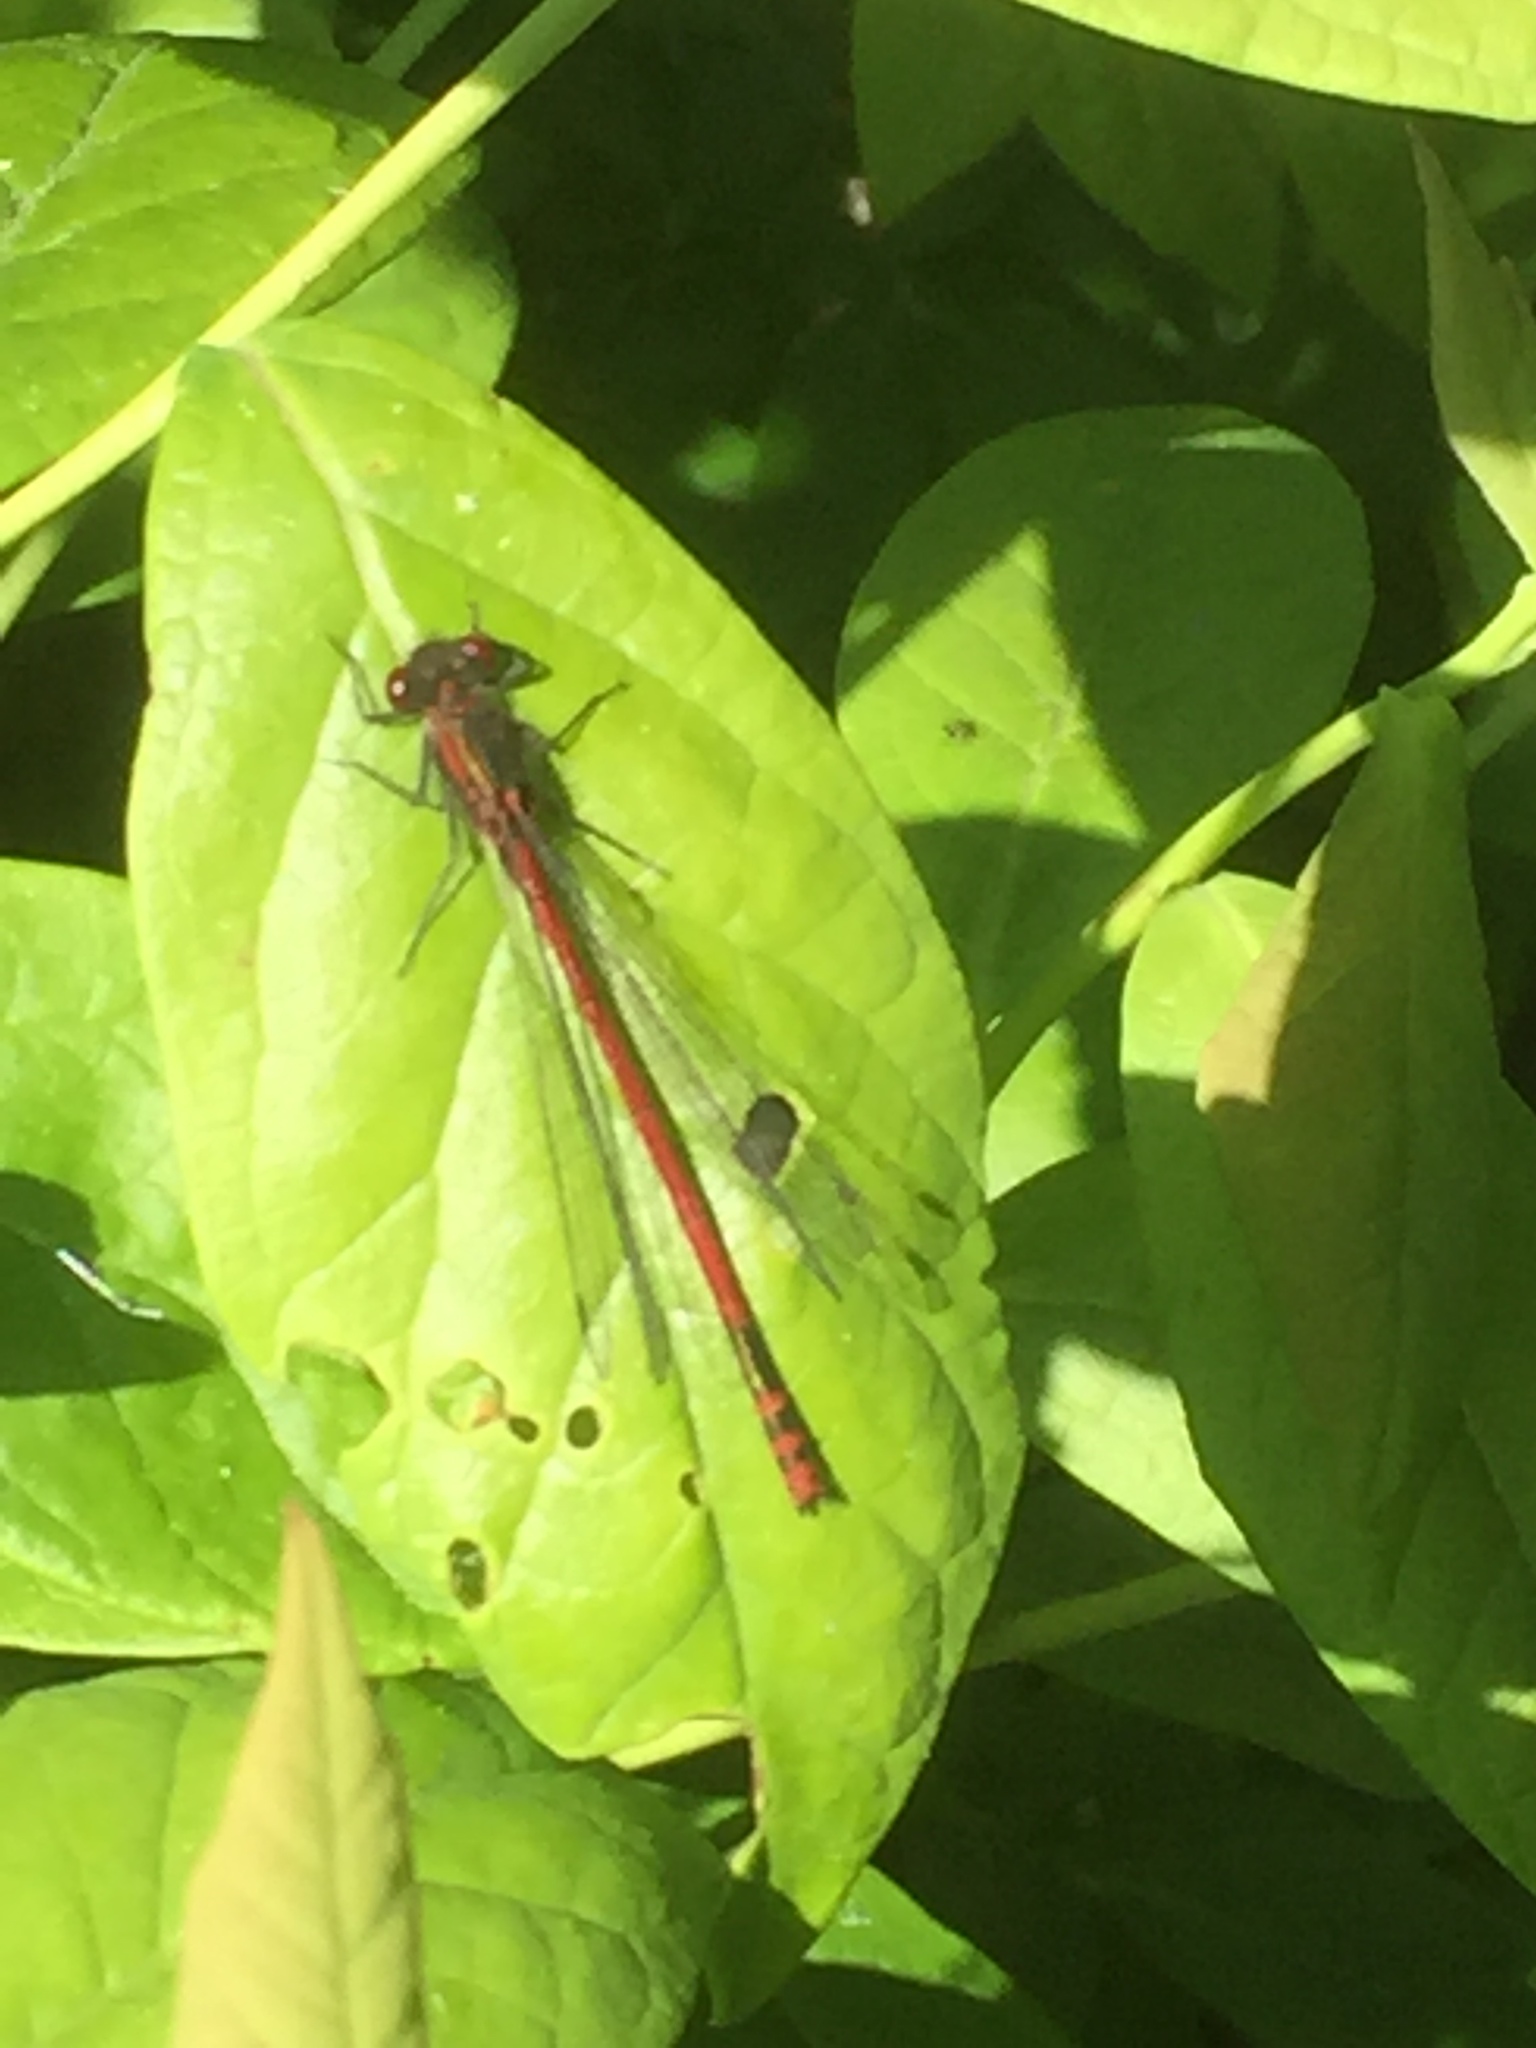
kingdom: Animalia
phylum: Arthropoda
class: Insecta
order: Odonata
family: Coenagrionidae
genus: Pyrrhosoma
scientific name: Pyrrhosoma nymphula
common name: Large red damsel
